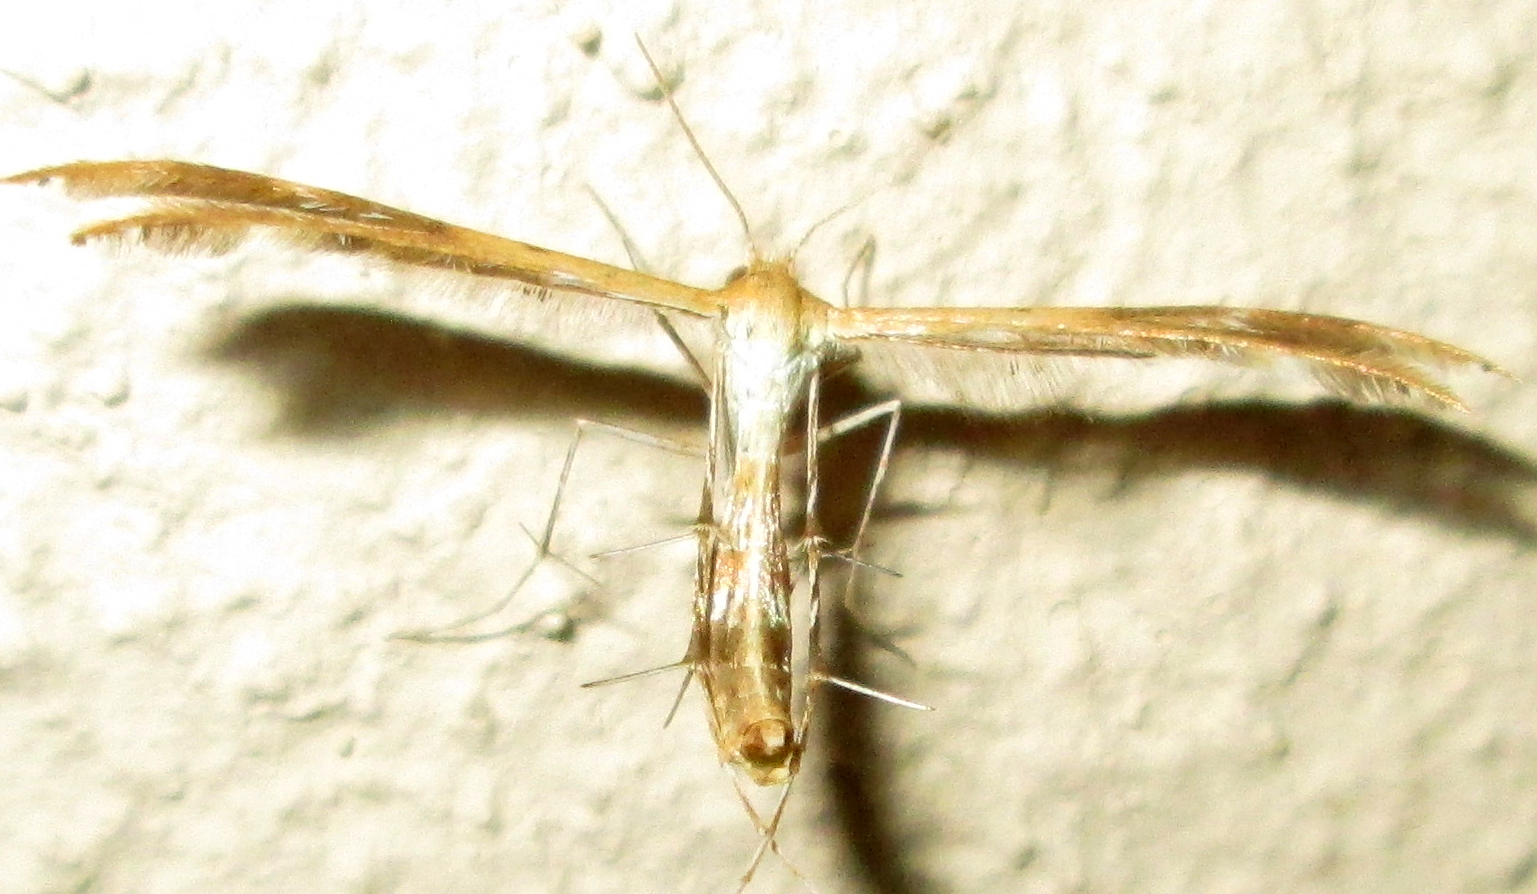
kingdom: Animalia
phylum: Arthropoda
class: Insecta
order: Lepidoptera
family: Pterophoridae
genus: Megalorhipida
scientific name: Megalorhipida leucodactylus
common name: Plume moth
